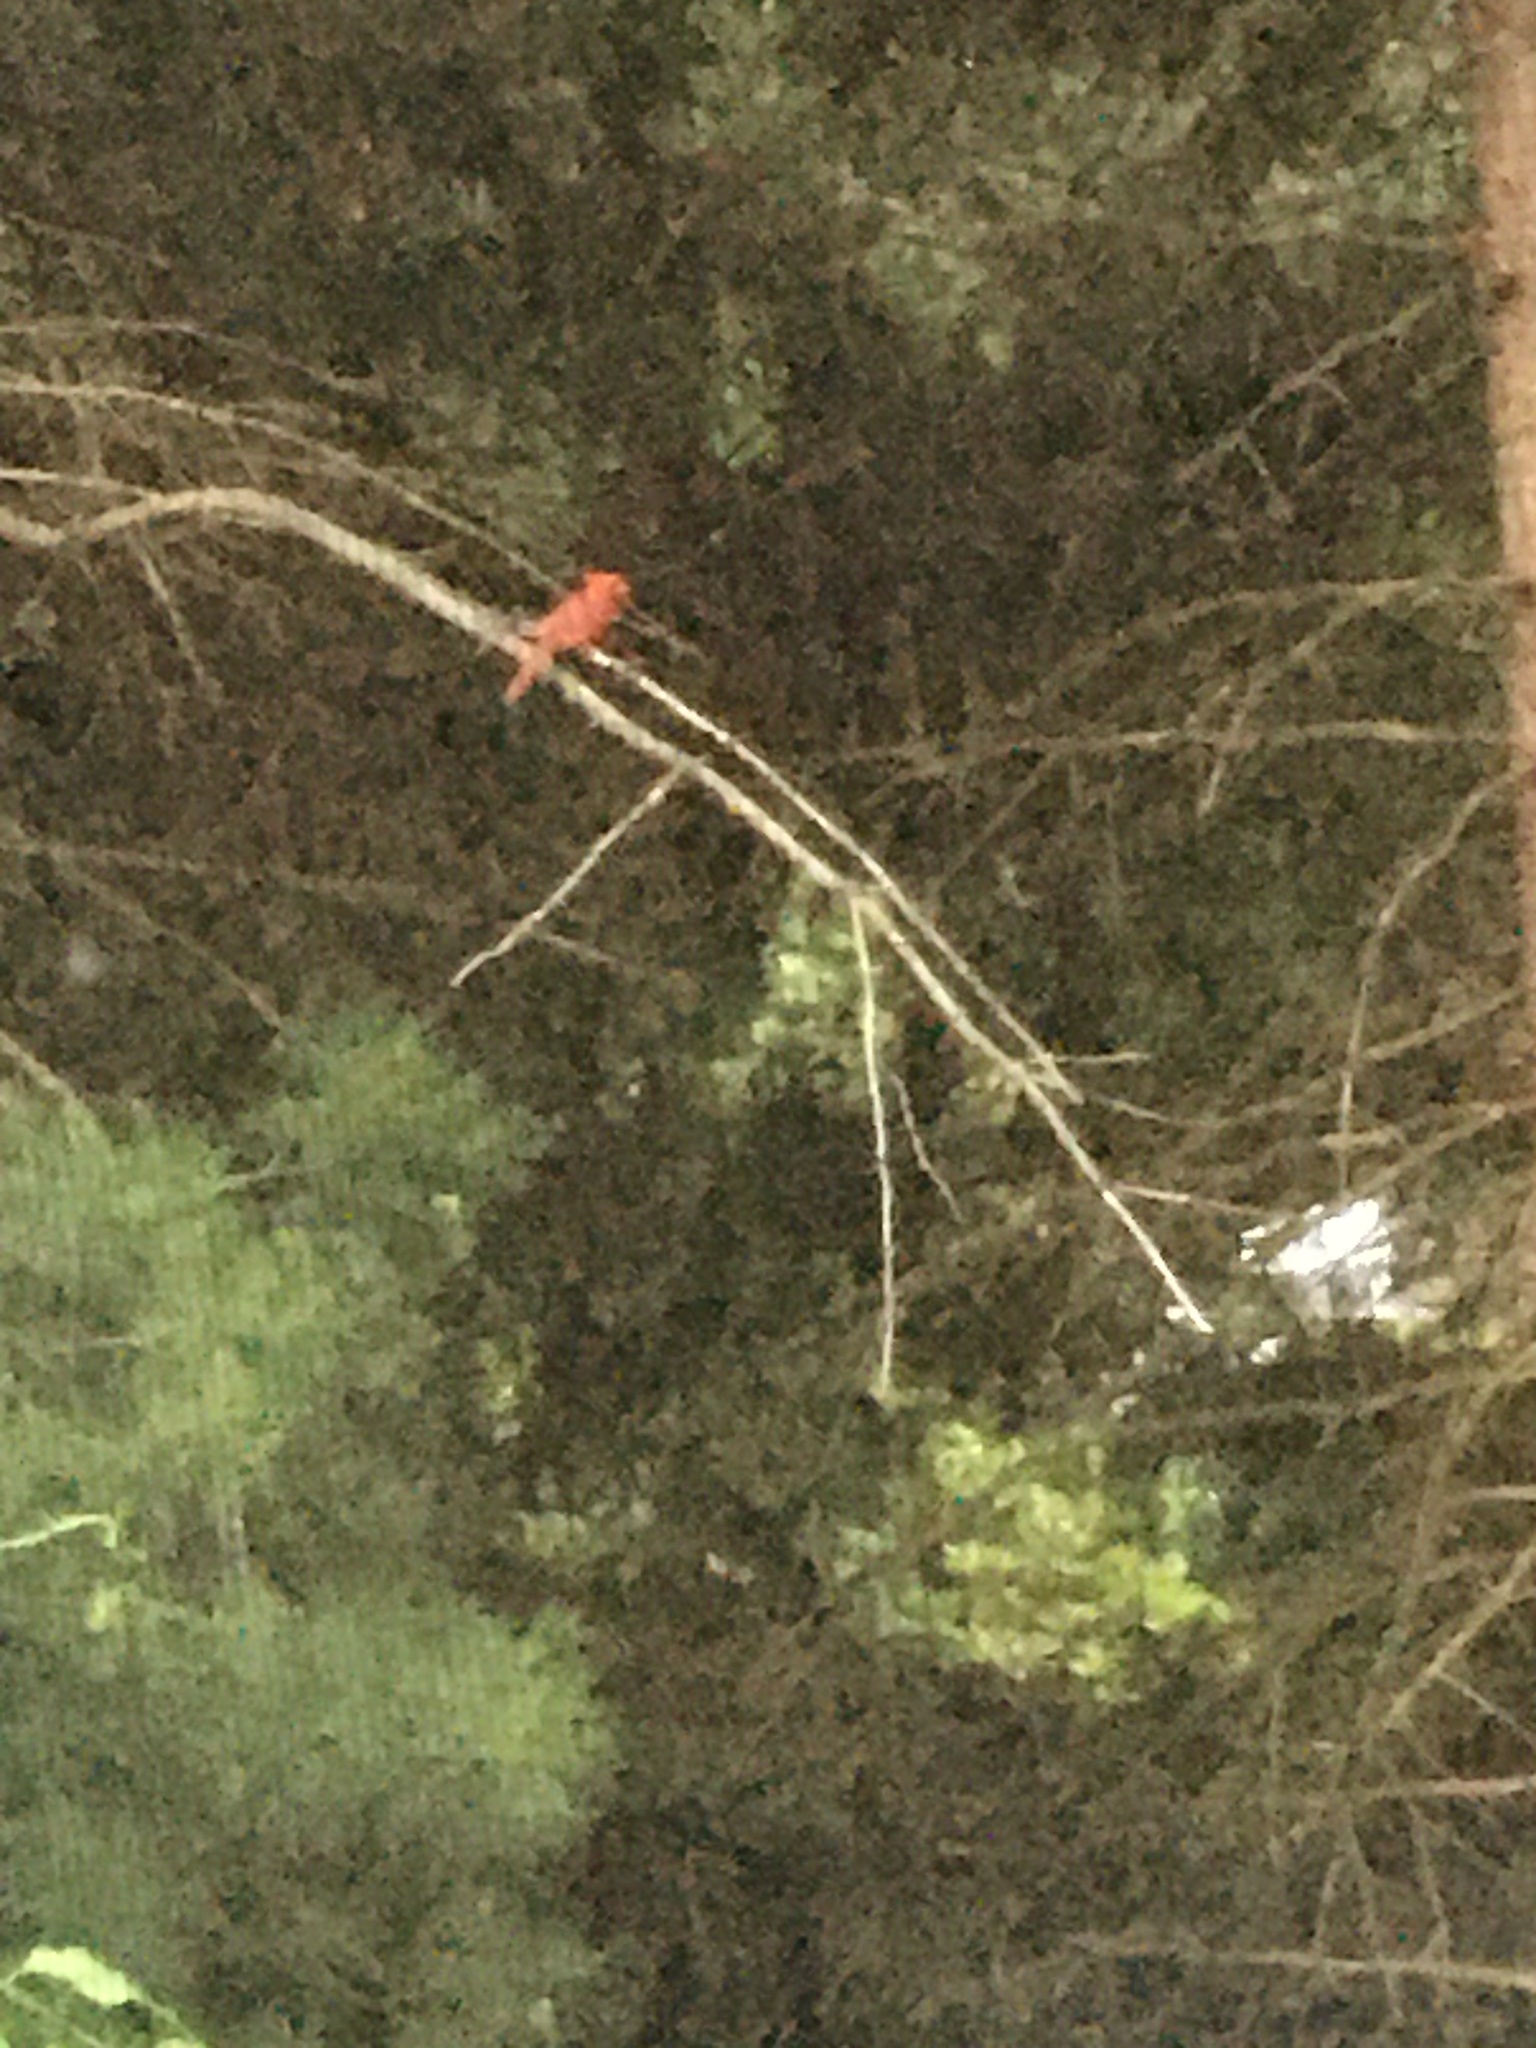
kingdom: Animalia
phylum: Chordata
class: Aves
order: Passeriformes
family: Cardinalidae
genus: Cardinalis
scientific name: Cardinalis cardinalis
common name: Northern cardinal
